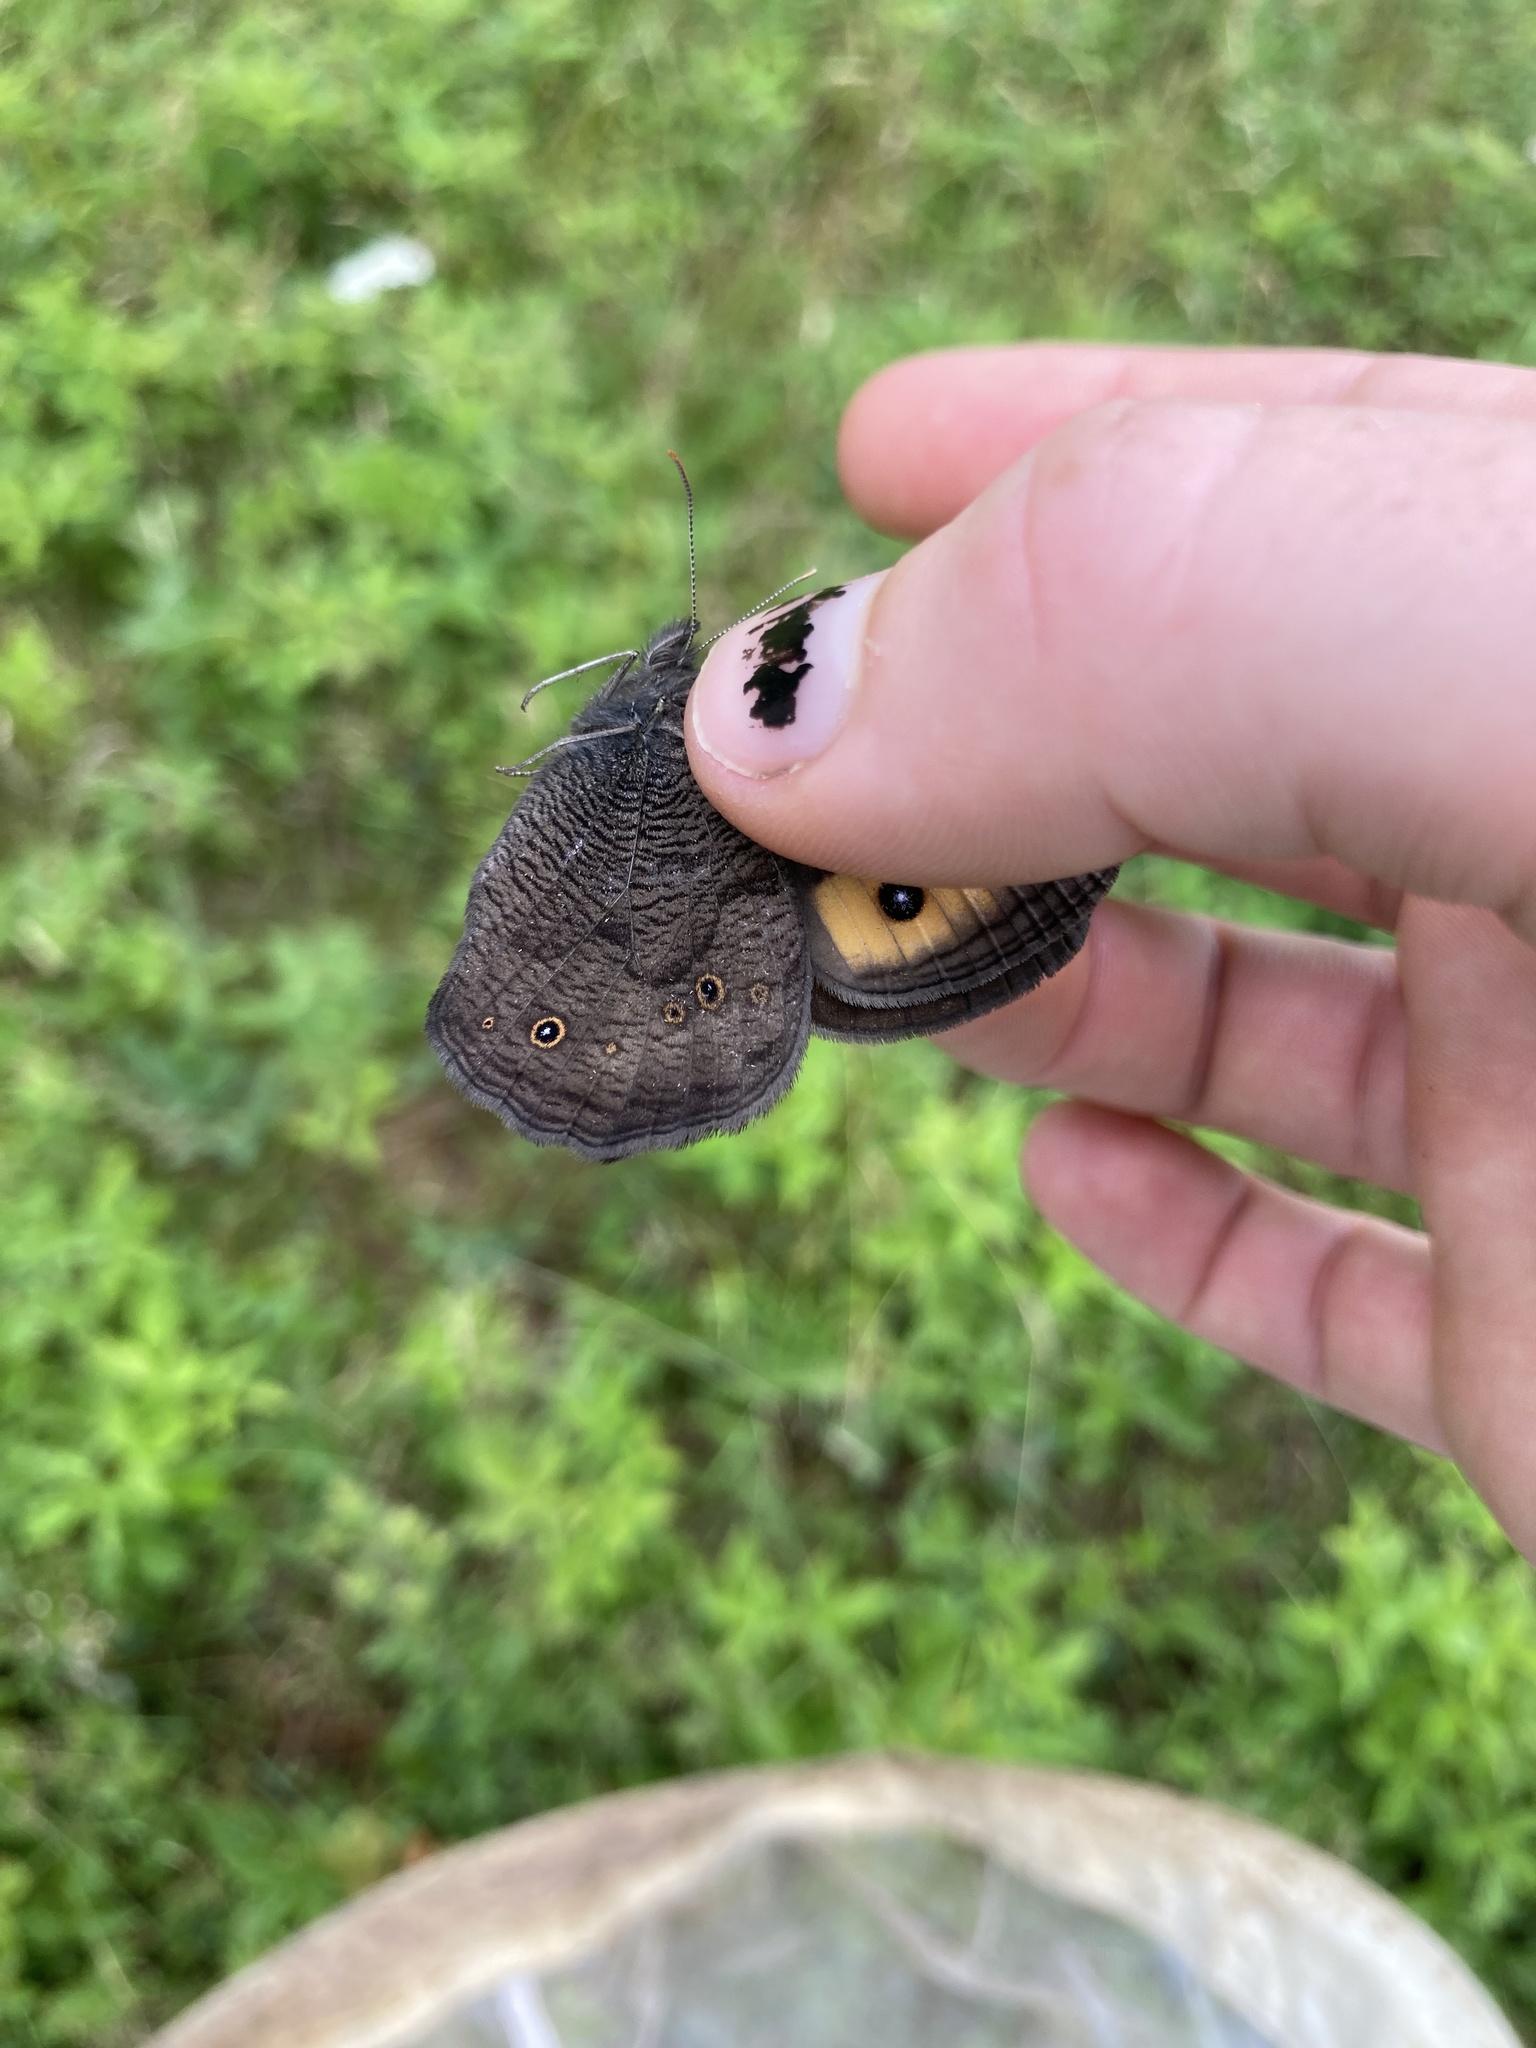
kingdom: Animalia
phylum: Arthropoda
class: Insecta
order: Lepidoptera
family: Nymphalidae
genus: Cercyonis
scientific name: Cercyonis pegala
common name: Common wood-nymph
